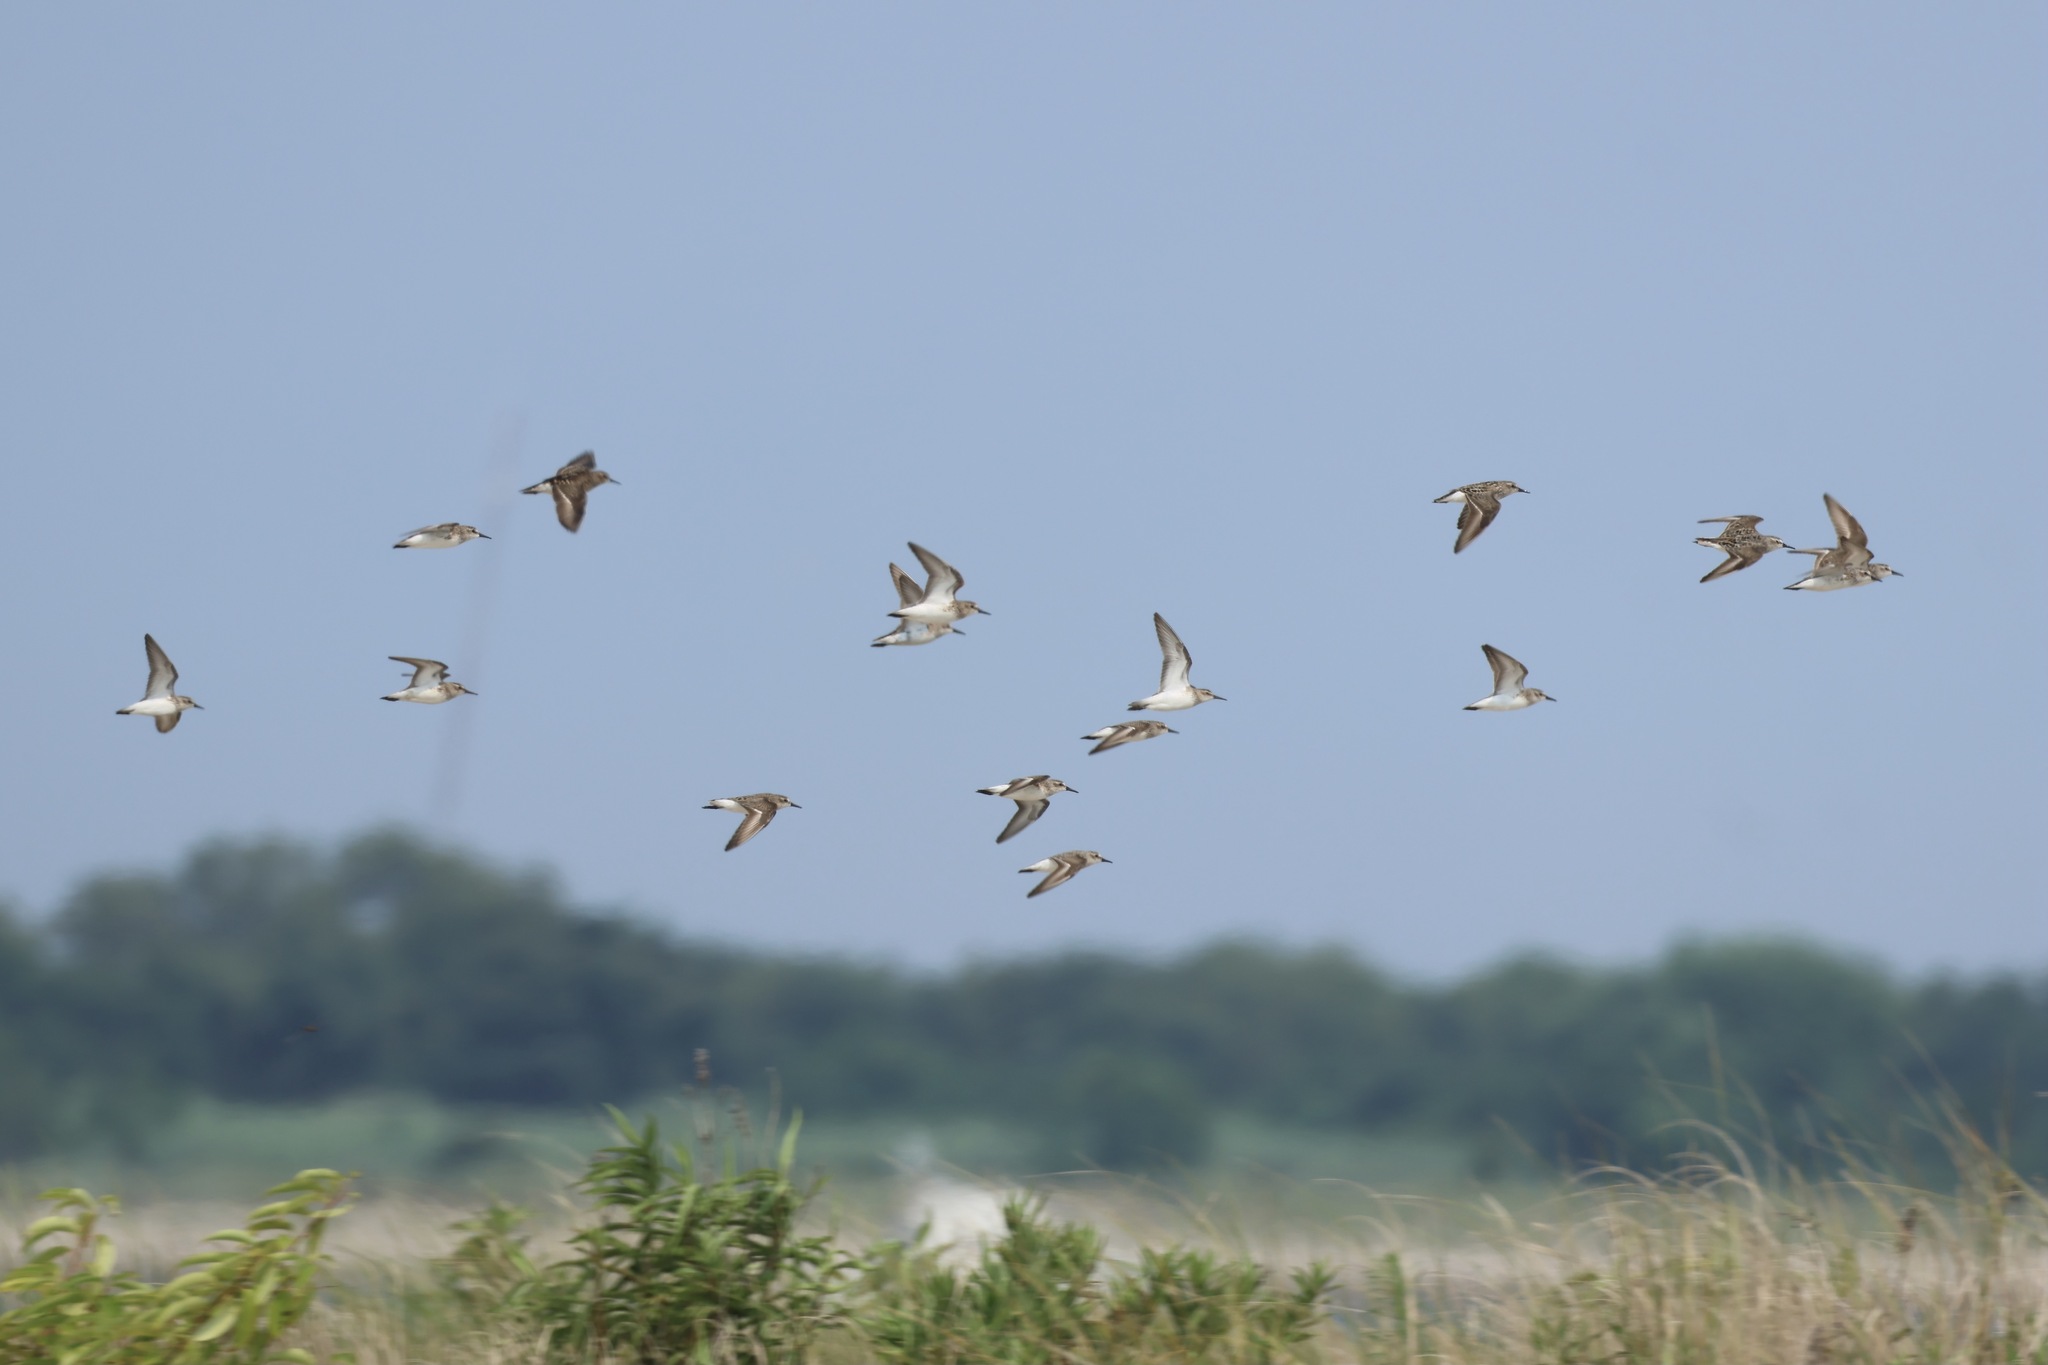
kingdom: Animalia
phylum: Chordata
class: Aves
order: Charadriiformes
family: Scolopacidae
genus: Calidris
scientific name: Calidris pusilla
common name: Semipalmated sandpiper
